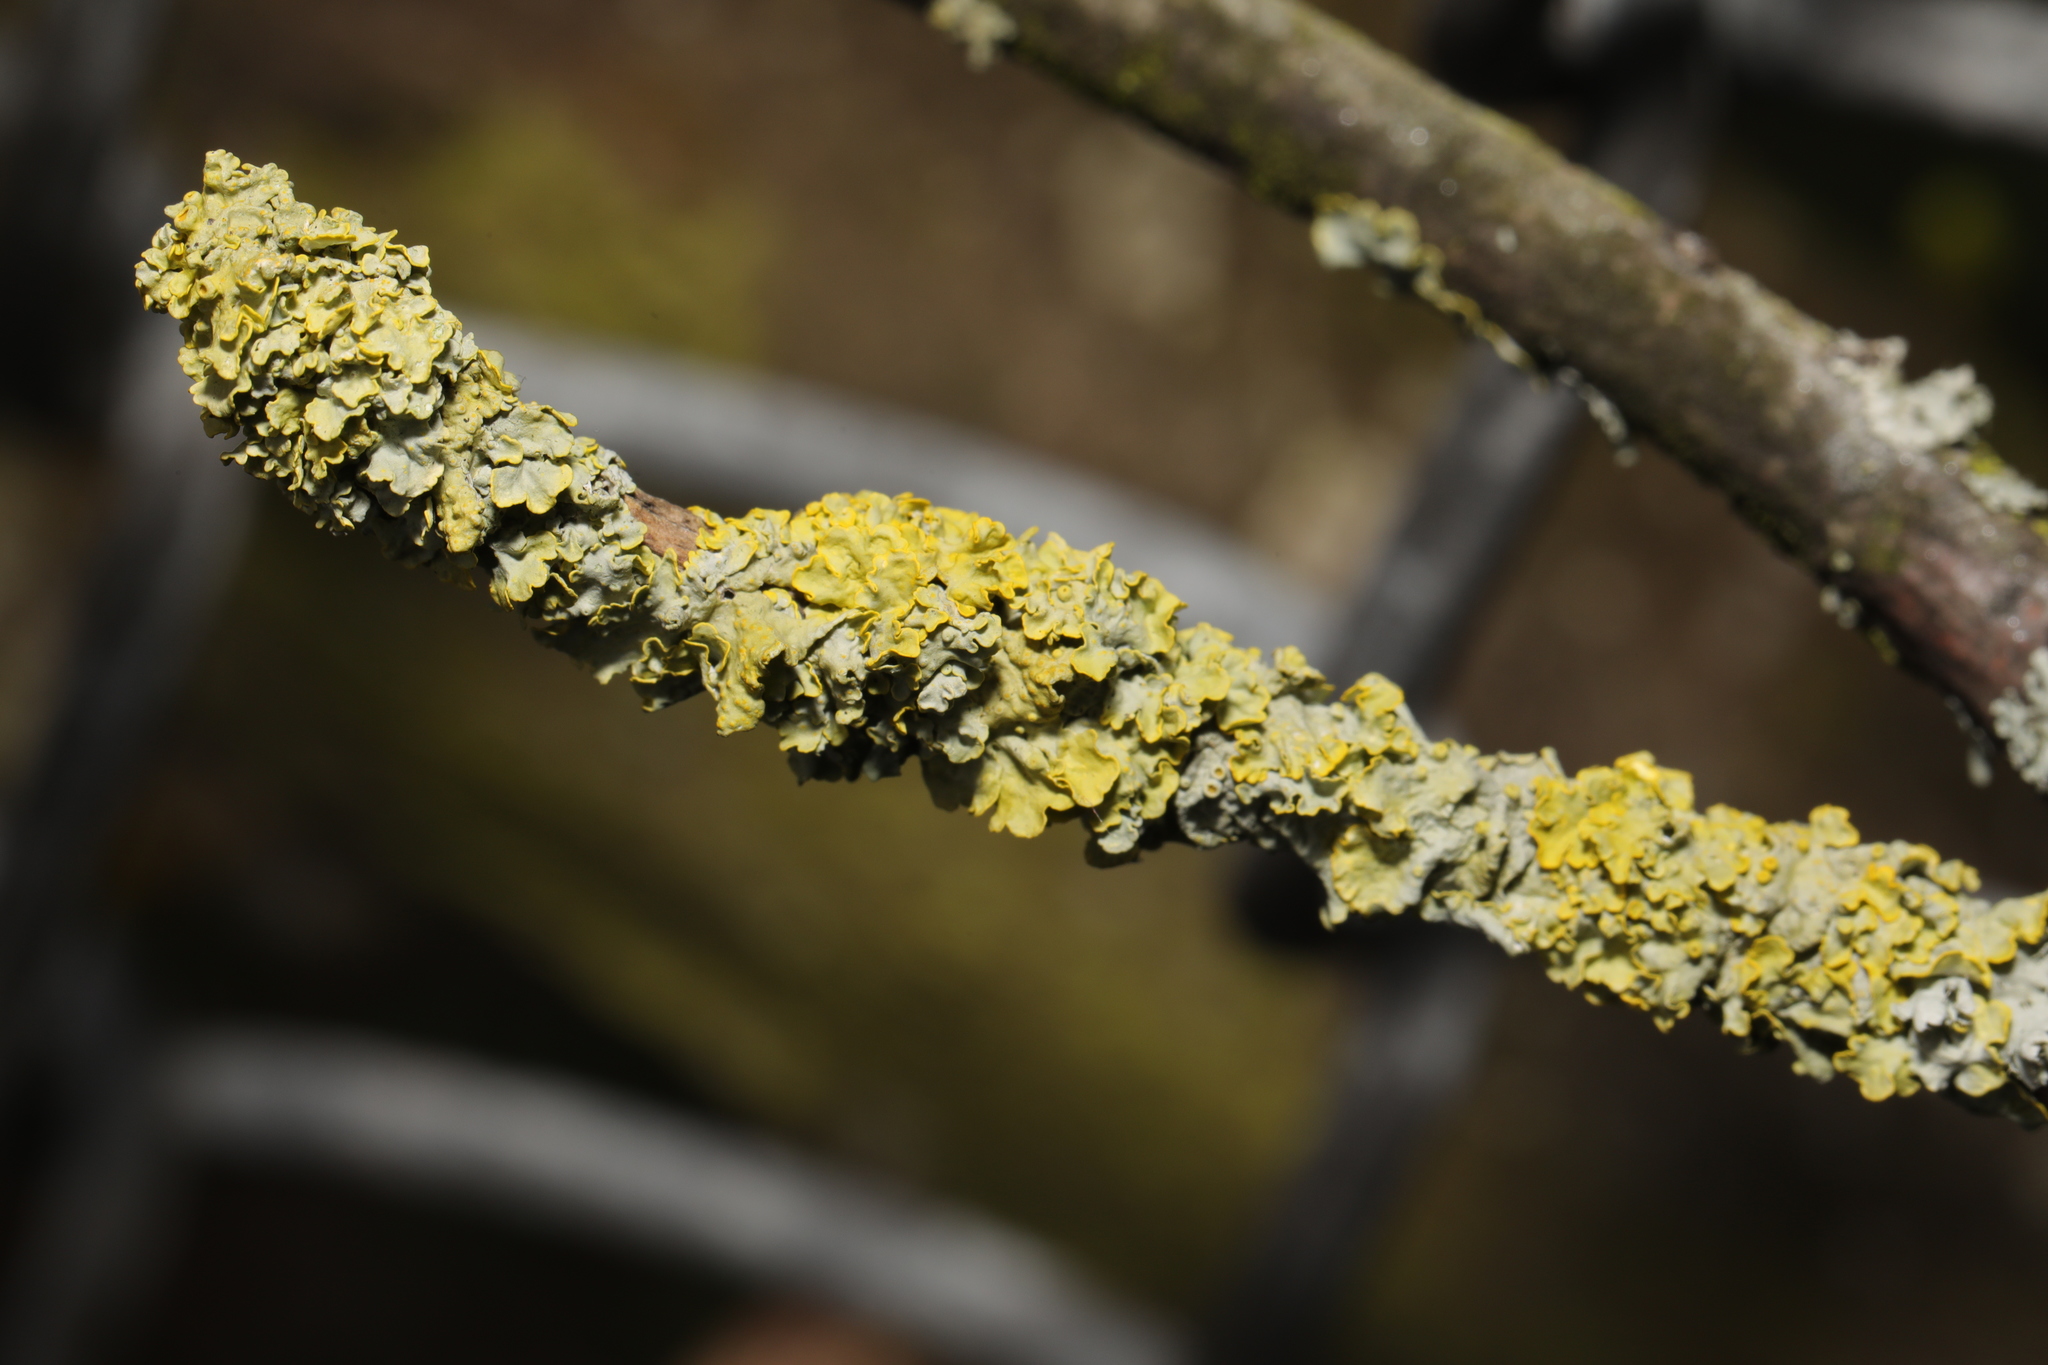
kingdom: Fungi
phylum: Ascomycota
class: Lecanoromycetes
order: Teloschistales
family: Teloschistaceae
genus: Xanthoria
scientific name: Xanthoria parietina
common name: Common orange lichen
